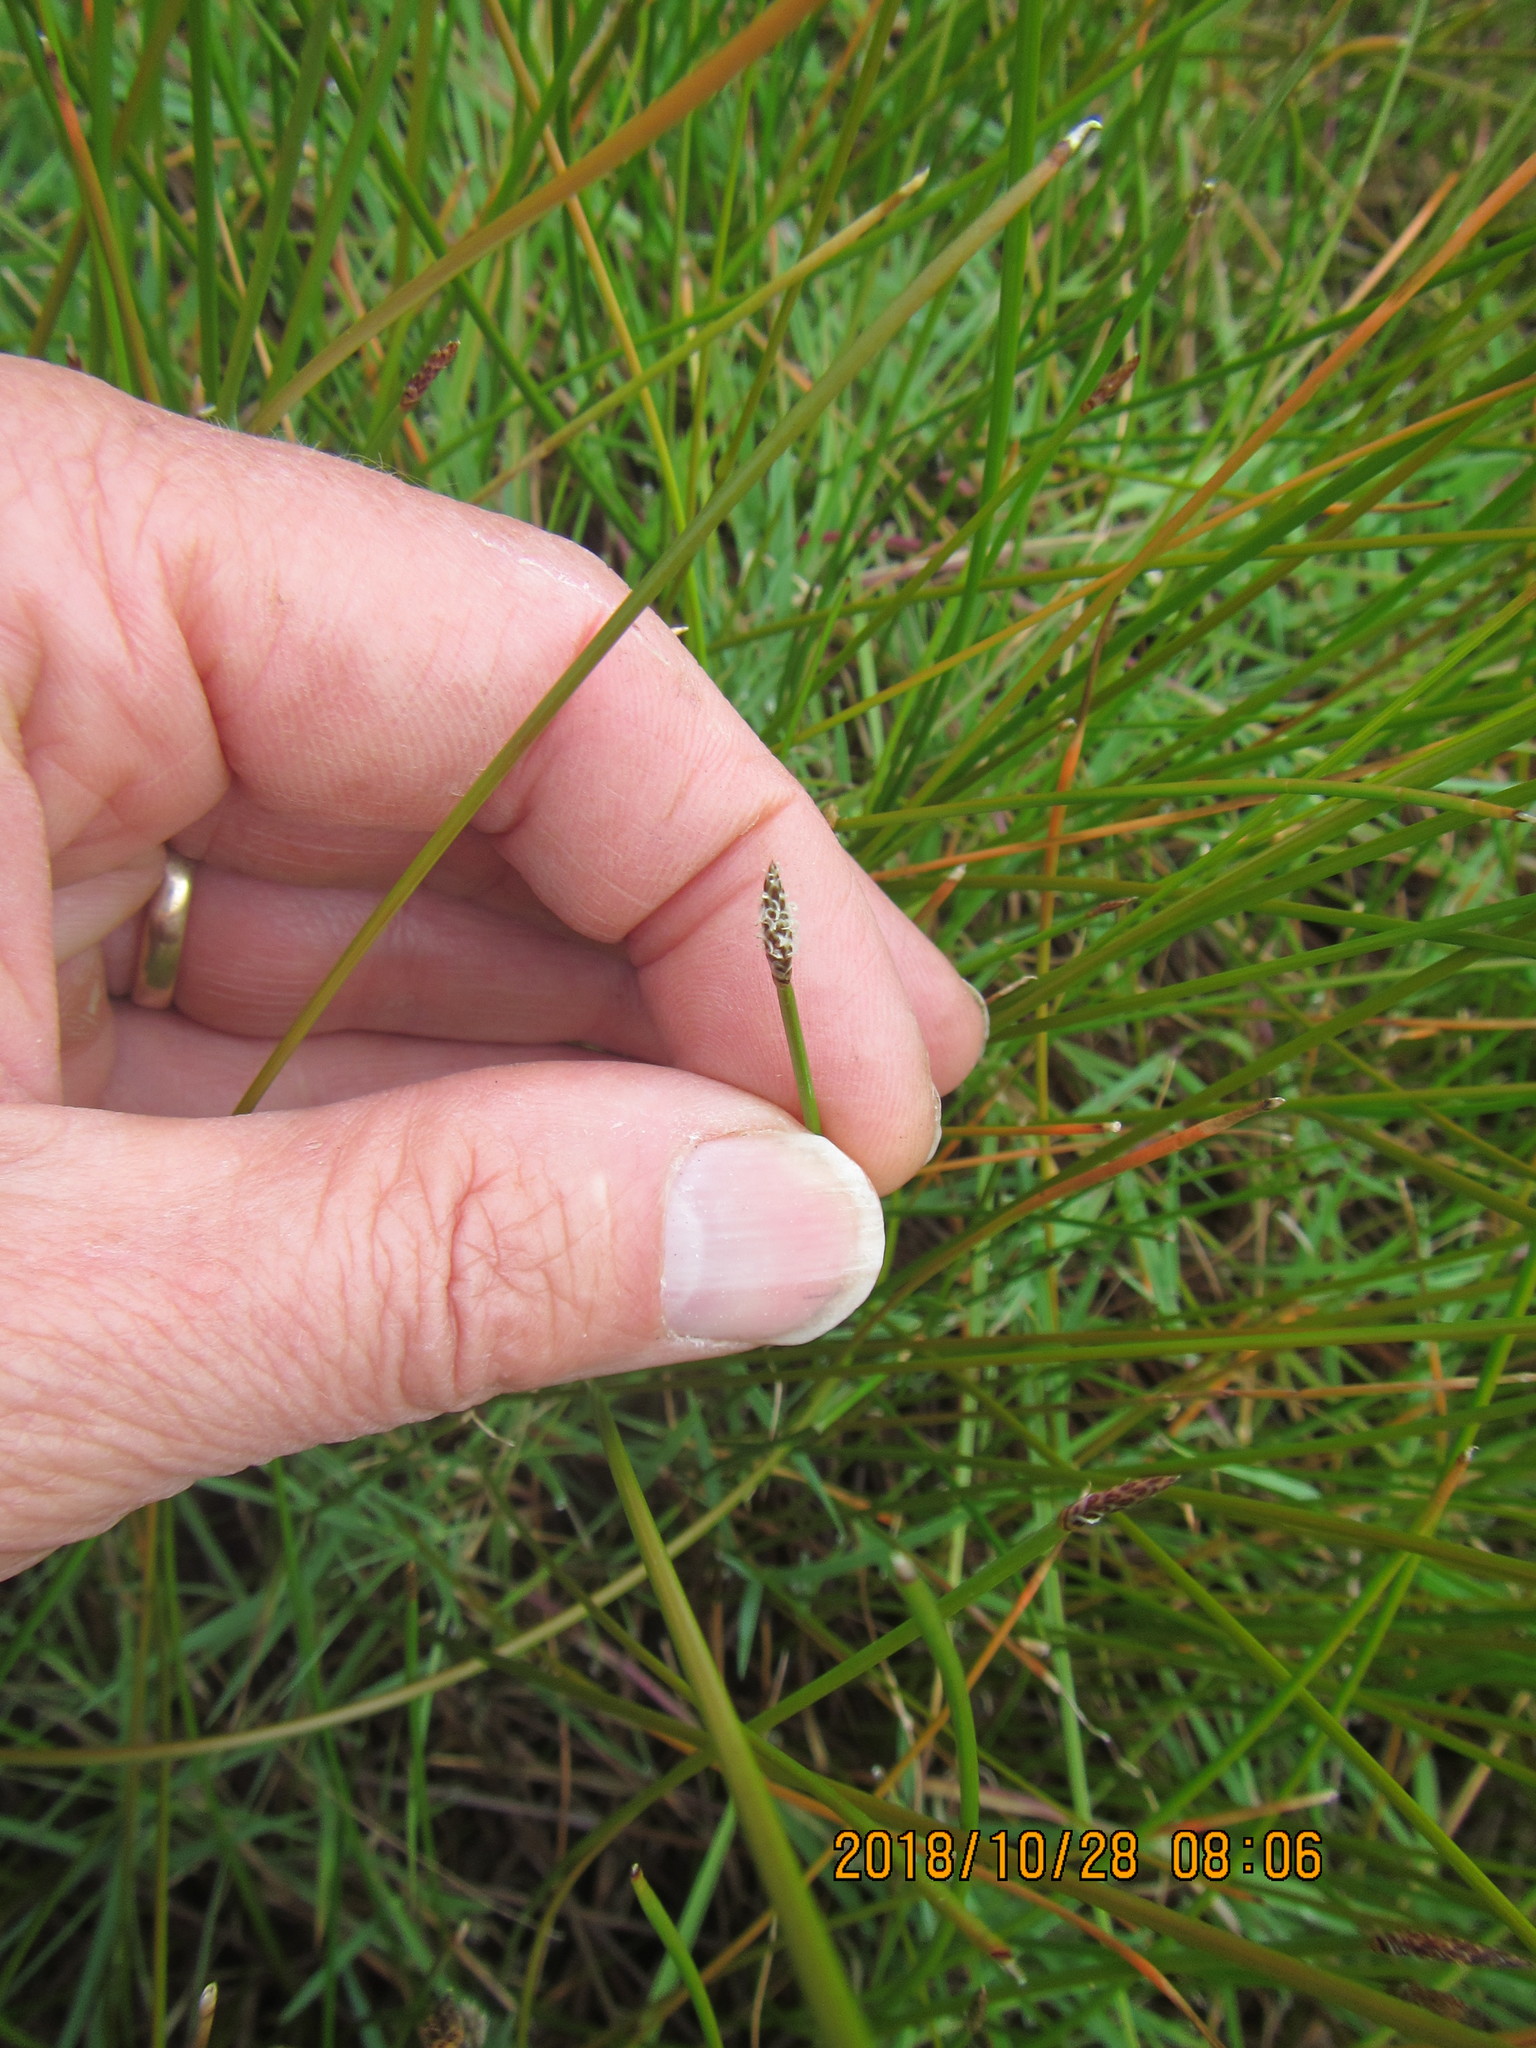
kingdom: Plantae
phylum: Tracheophyta
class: Liliopsida
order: Poales
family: Cyperaceae
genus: Eleocharis
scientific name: Eleocharis acuta
